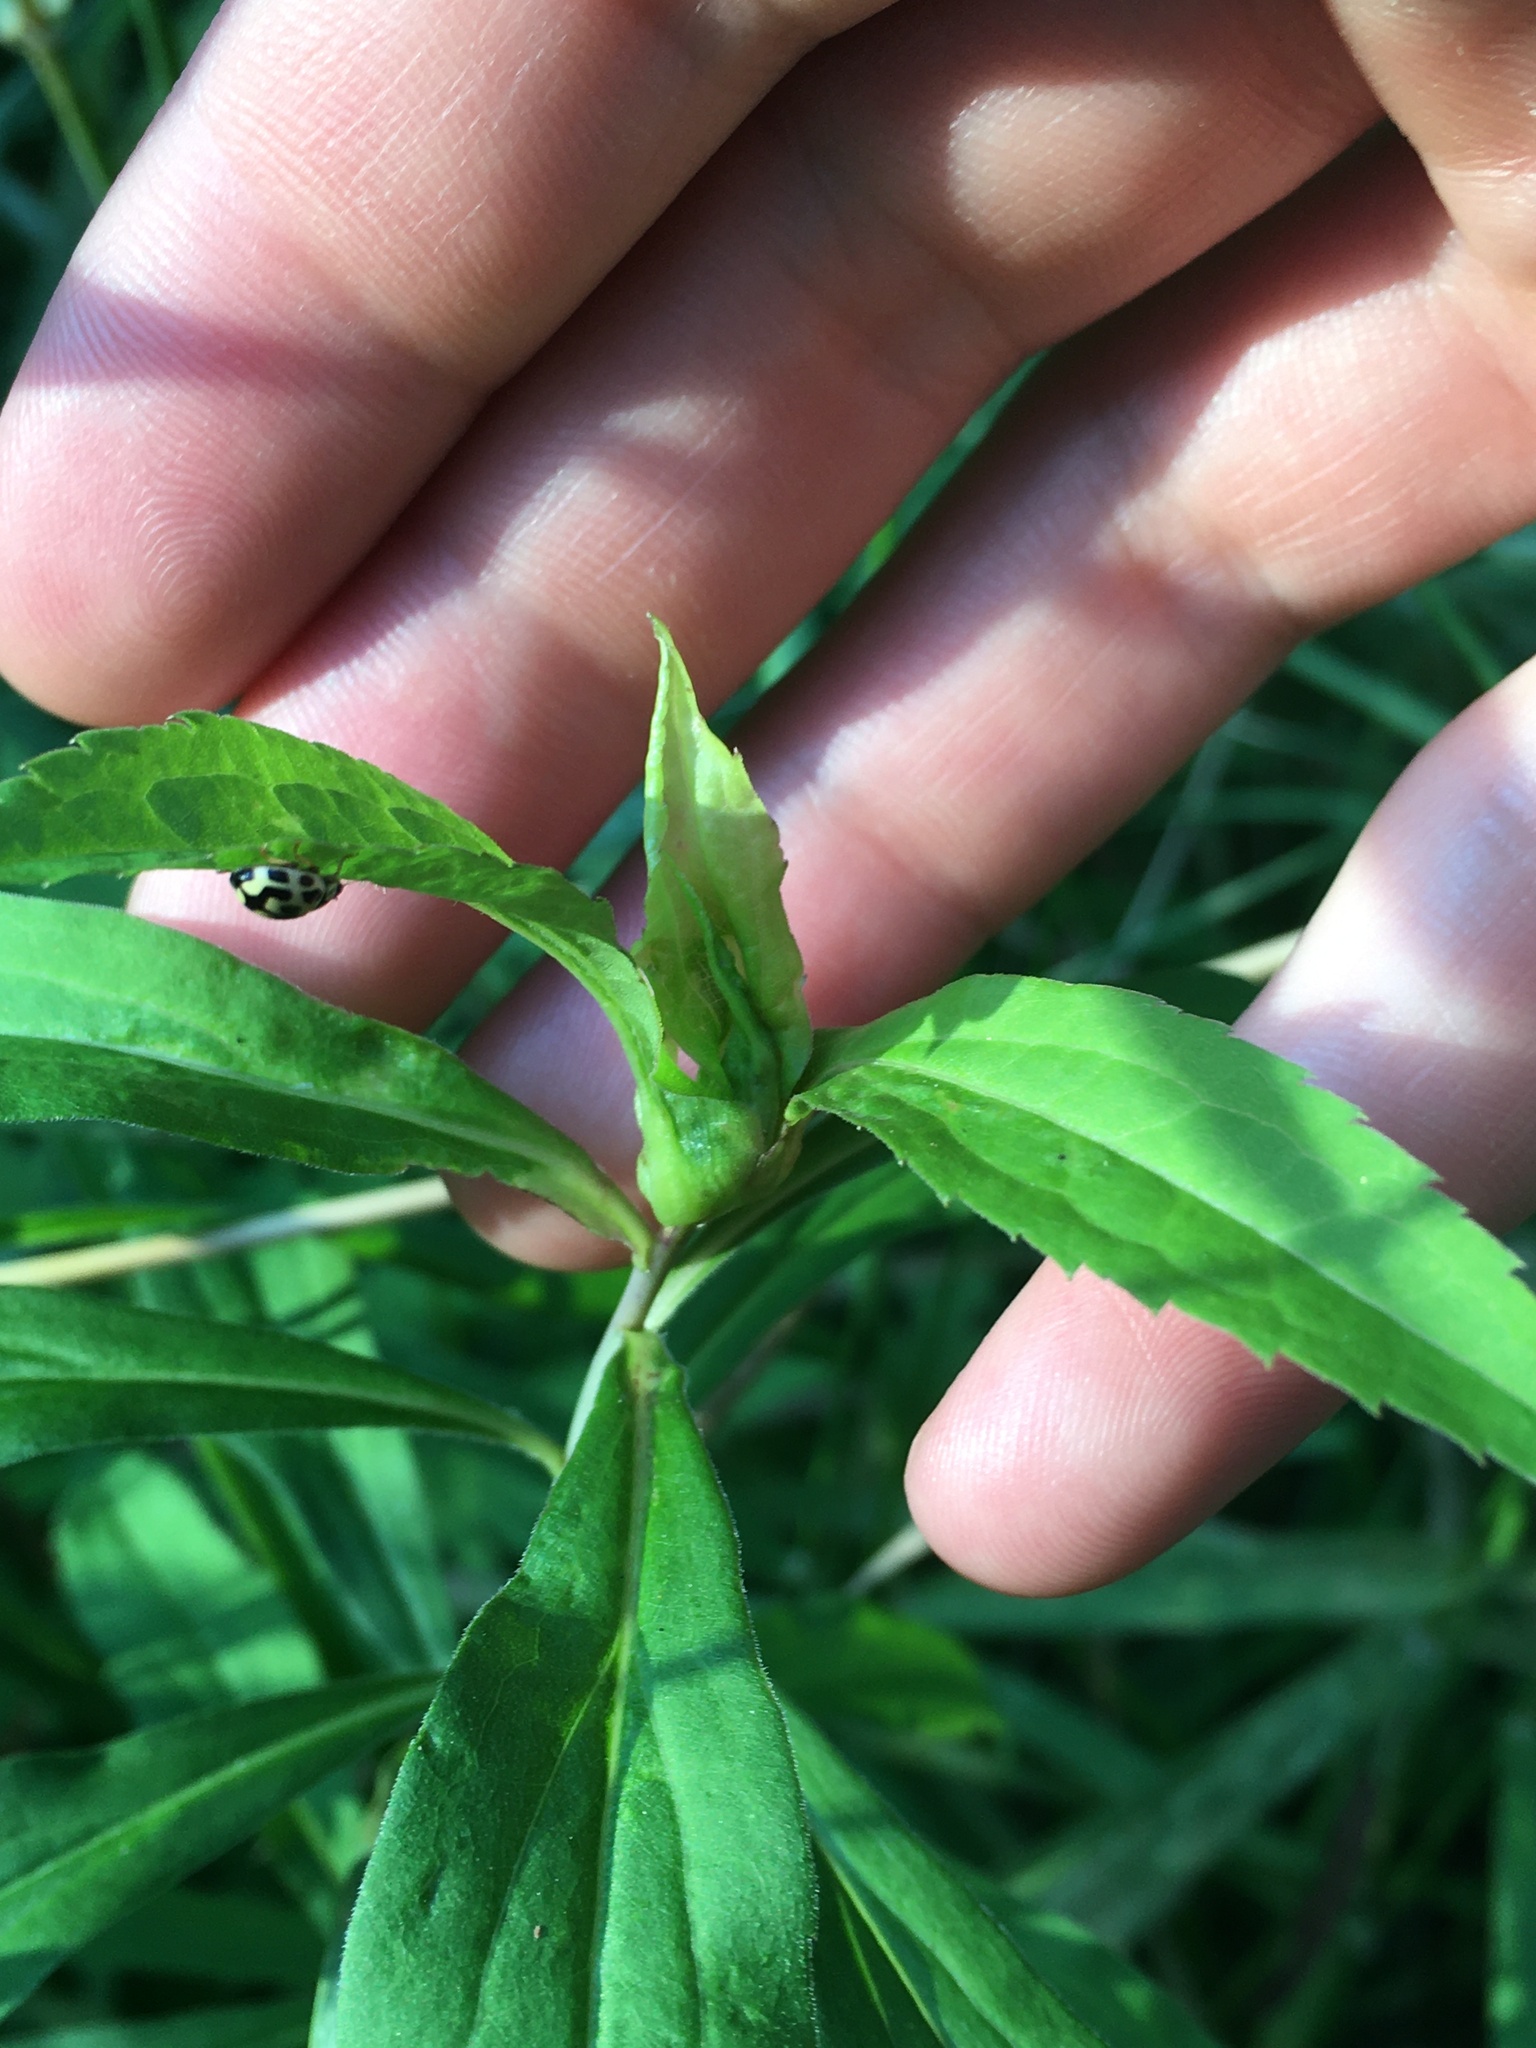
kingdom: Animalia
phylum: Arthropoda
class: Insecta
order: Coleoptera
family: Coccinellidae
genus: Propylaea
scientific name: Propylaea quatuordecimpunctata
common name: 14-spotted ladybird beetle
